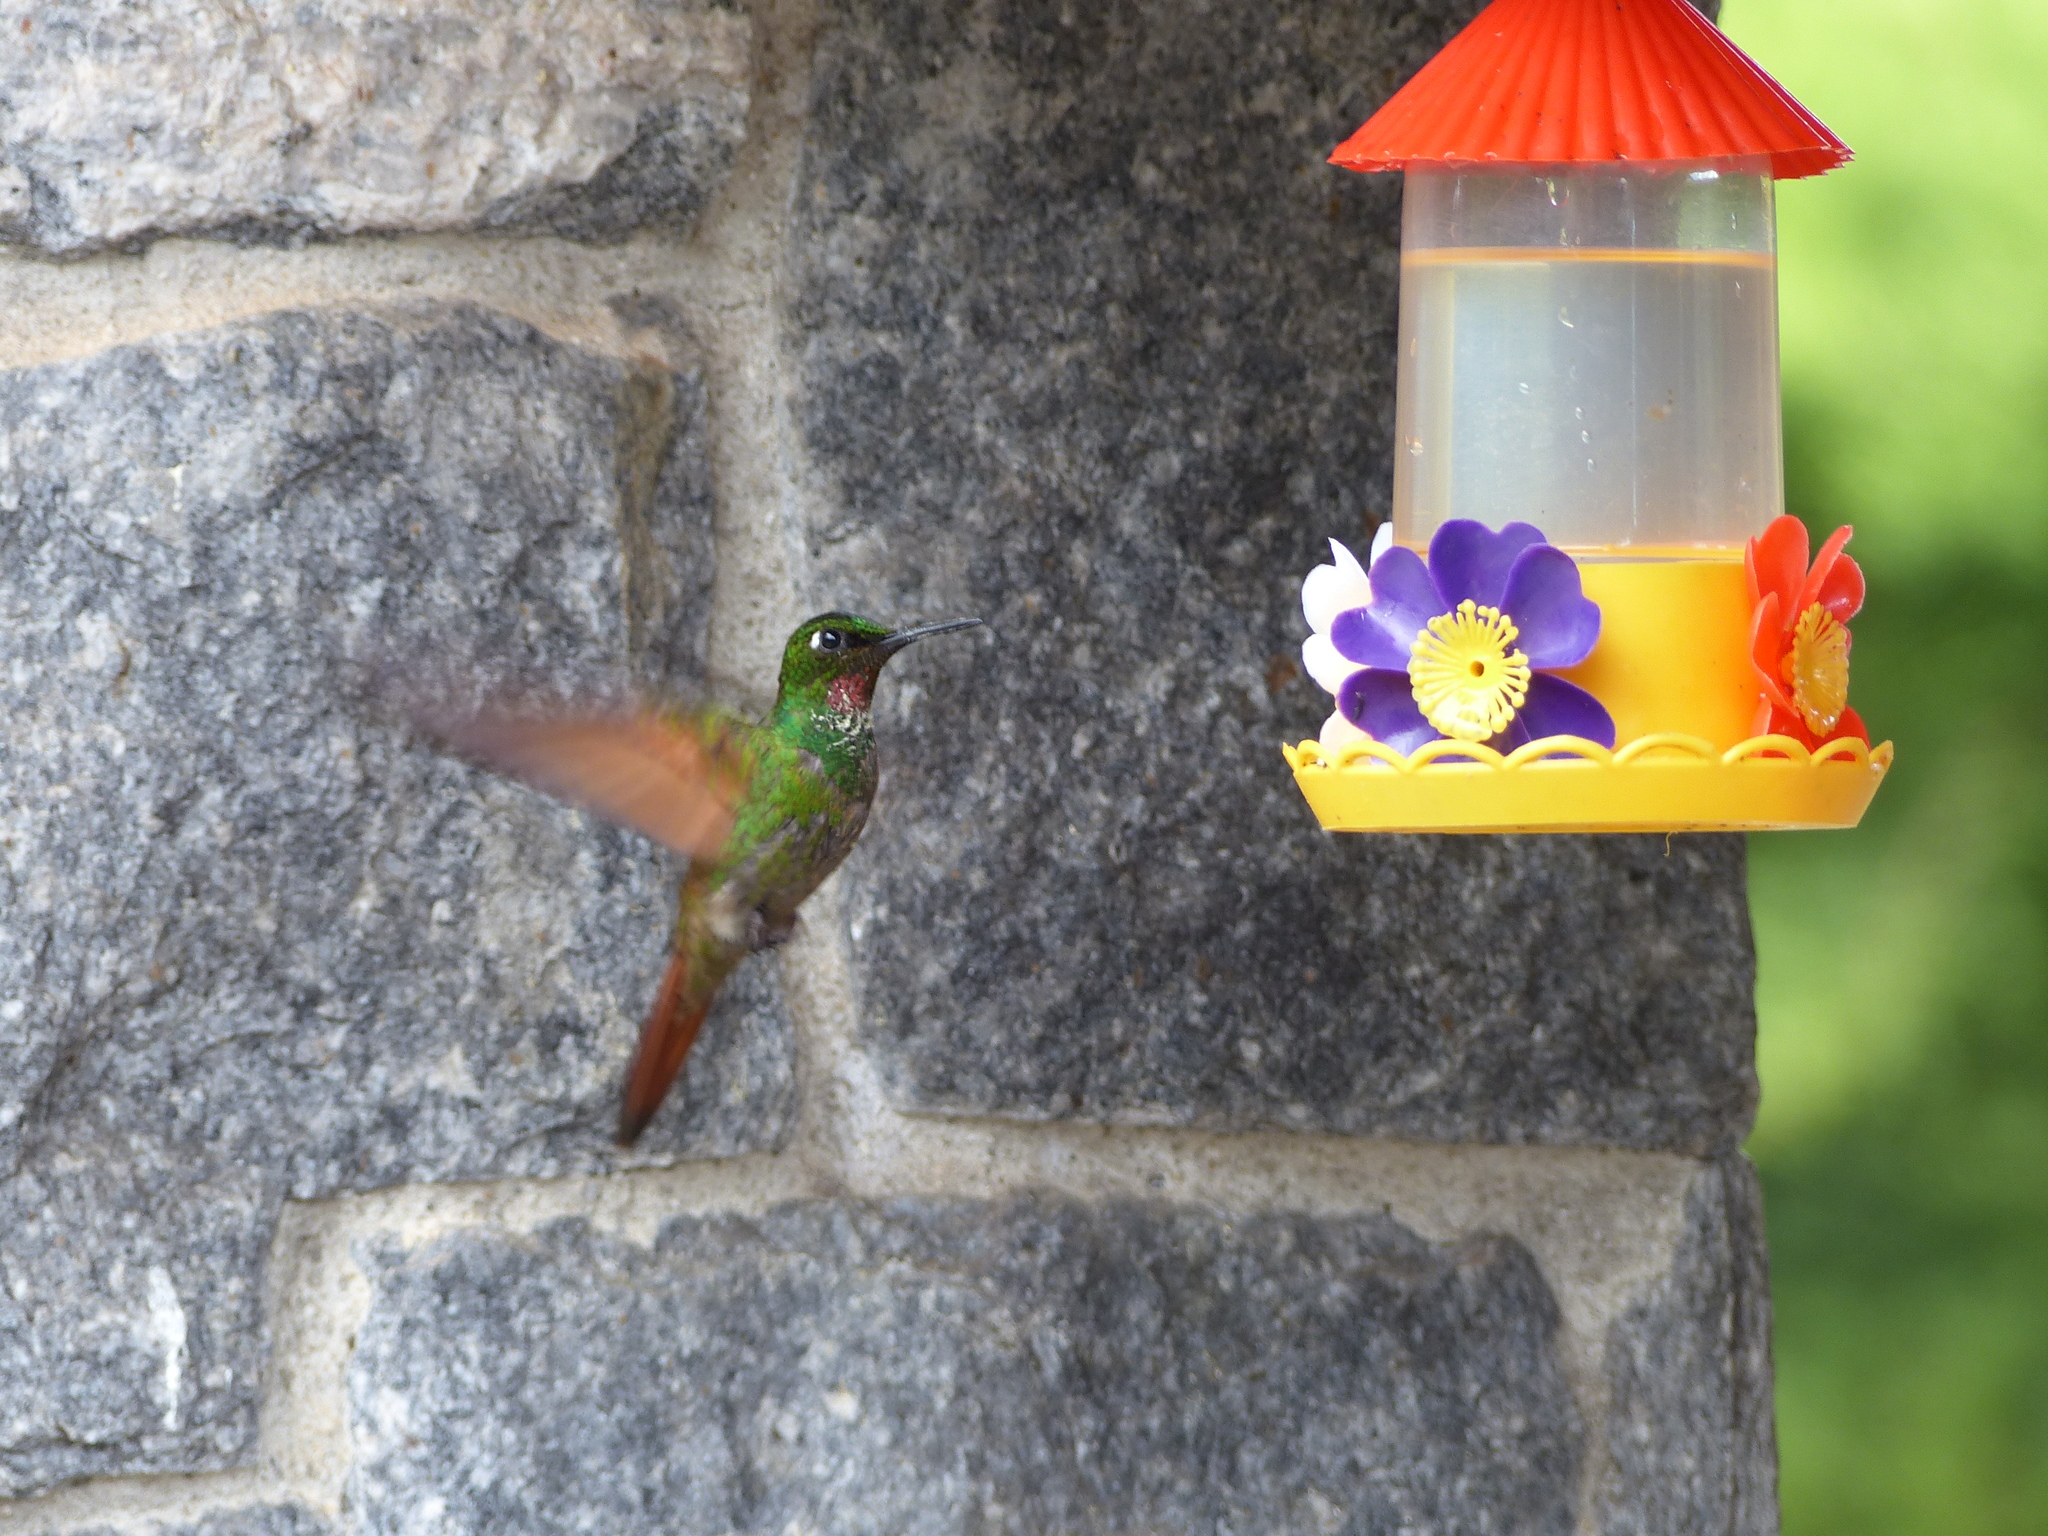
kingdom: Animalia
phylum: Chordata
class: Aves
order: Apodiformes
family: Trochilidae
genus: Clytolaema
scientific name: Clytolaema rubricauda
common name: Brazilian ruby
